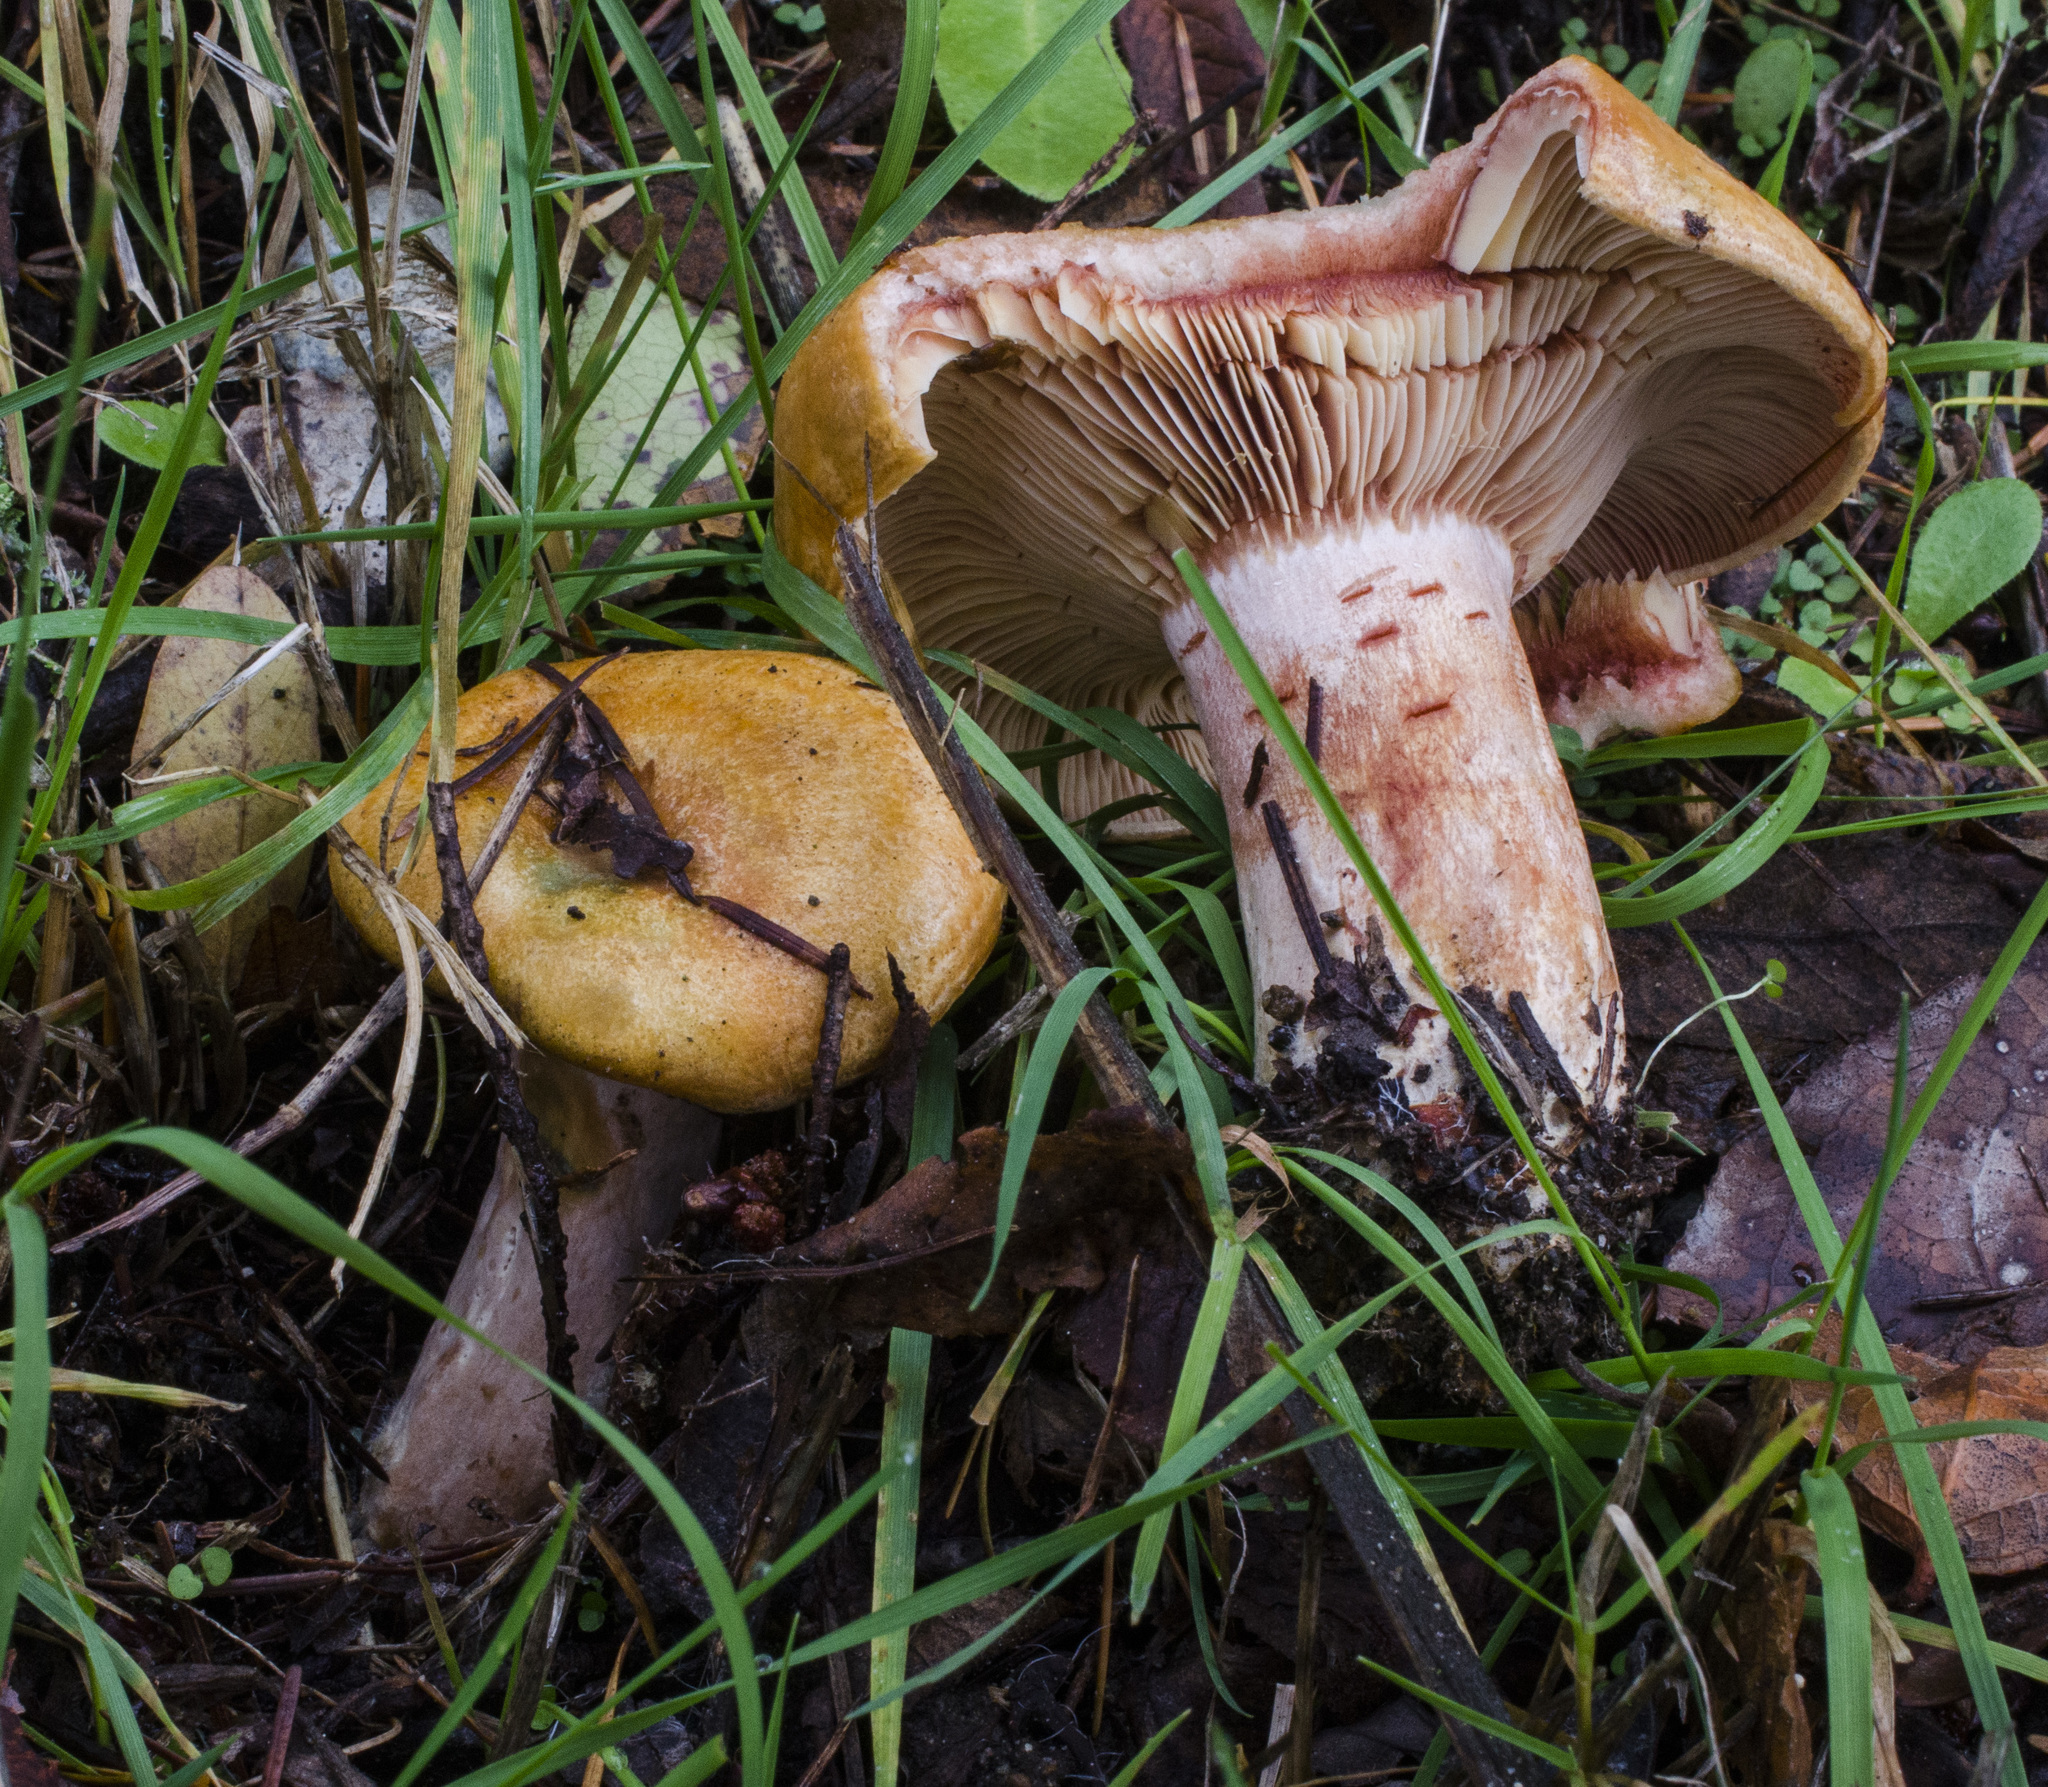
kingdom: Fungi
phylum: Basidiomycota
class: Agaricomycetes
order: Russulales
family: Russulaceae
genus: Lactarius
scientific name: Lactarius rubrilacteus
